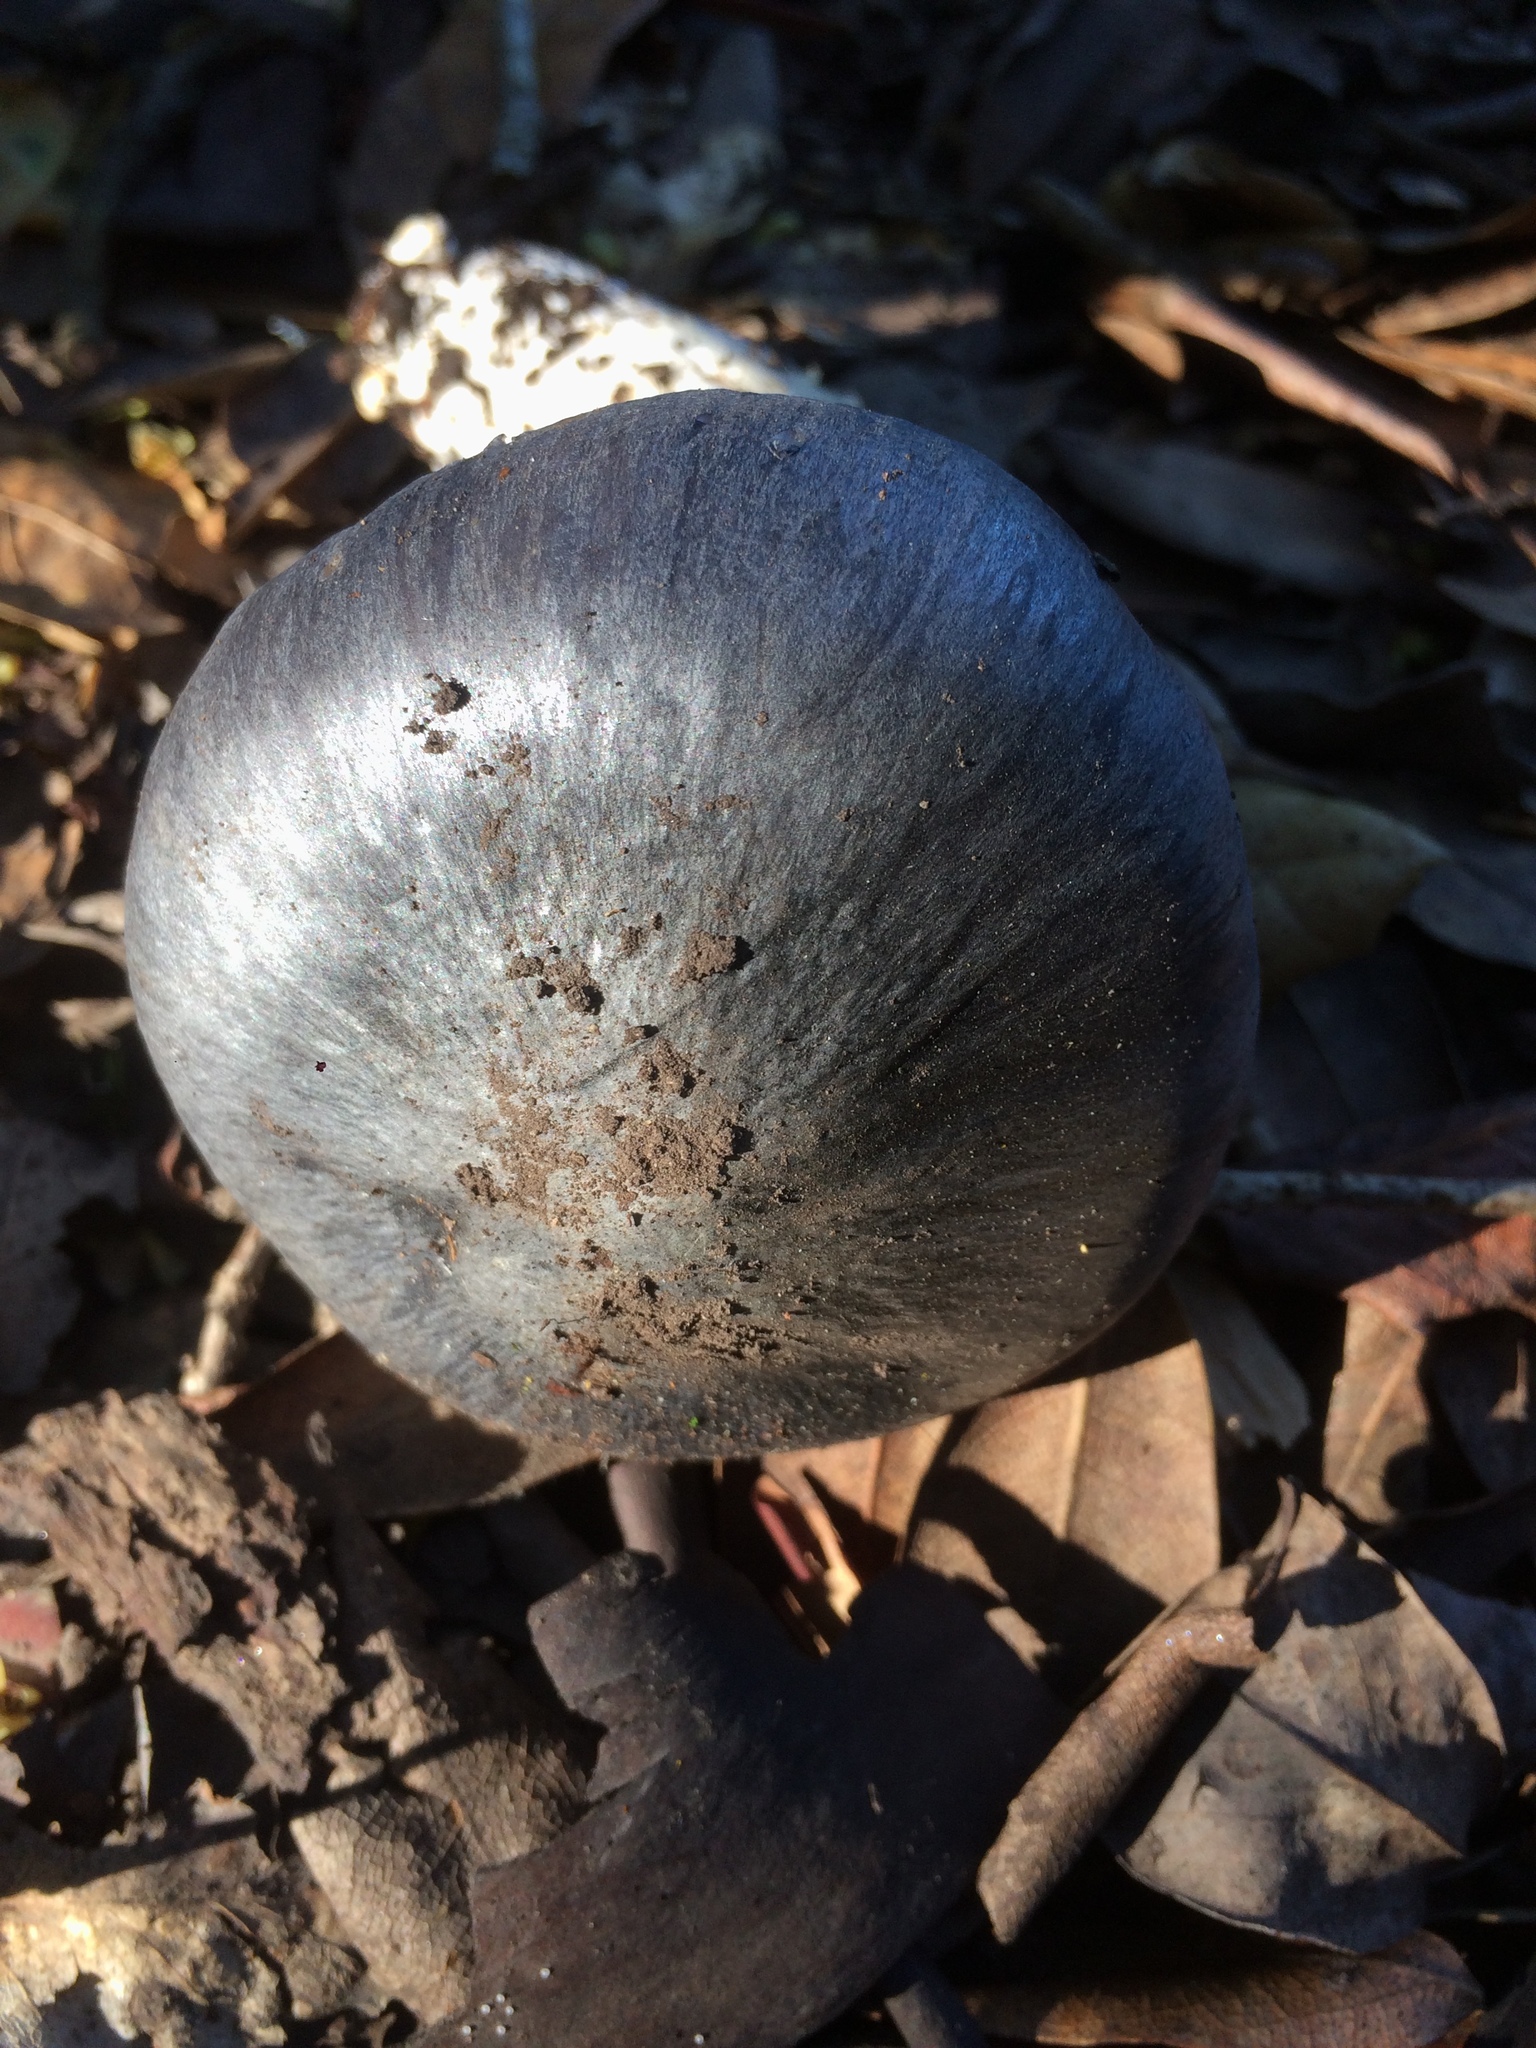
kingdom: Fungi
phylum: Basidiomycota
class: Agaricomycetes
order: Agaricales
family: Entolomataceae
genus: Entoloma
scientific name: Entoloma medianox
